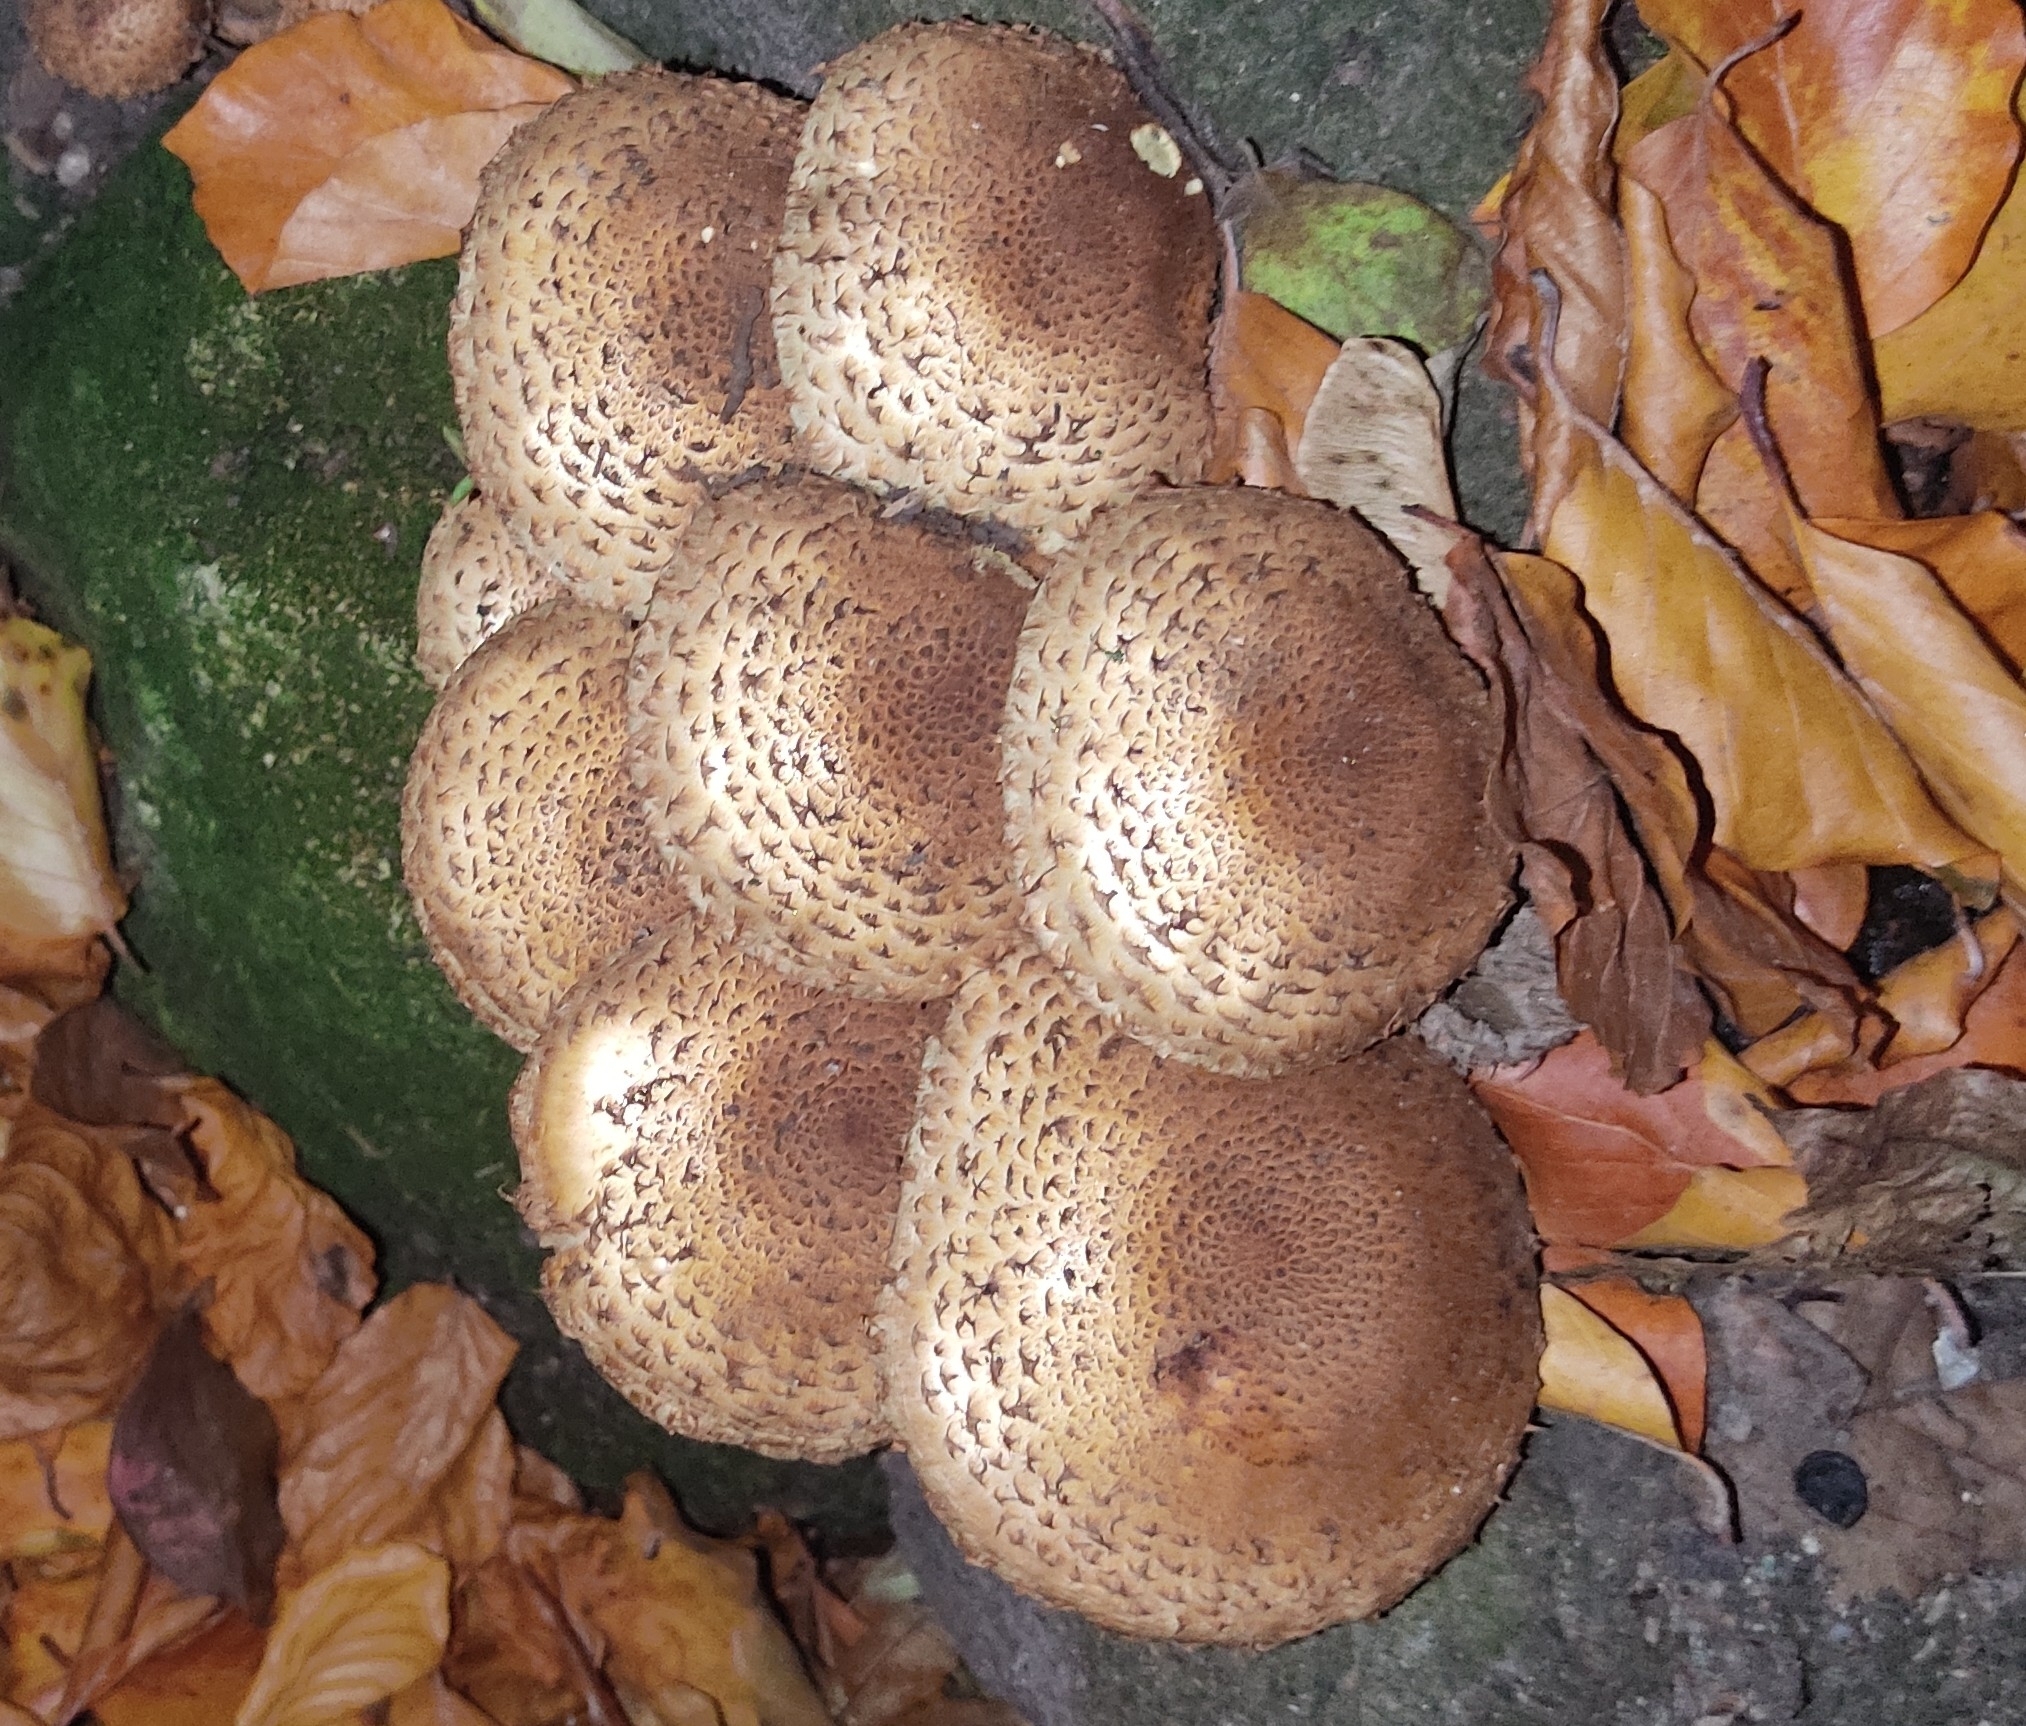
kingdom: Fungi
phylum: Basidiomycota
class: Agaricomycetes
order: Agaricales
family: Strophariaceae
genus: Pholiota
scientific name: Pholiota squarrosa
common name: Shaggy pholiota
